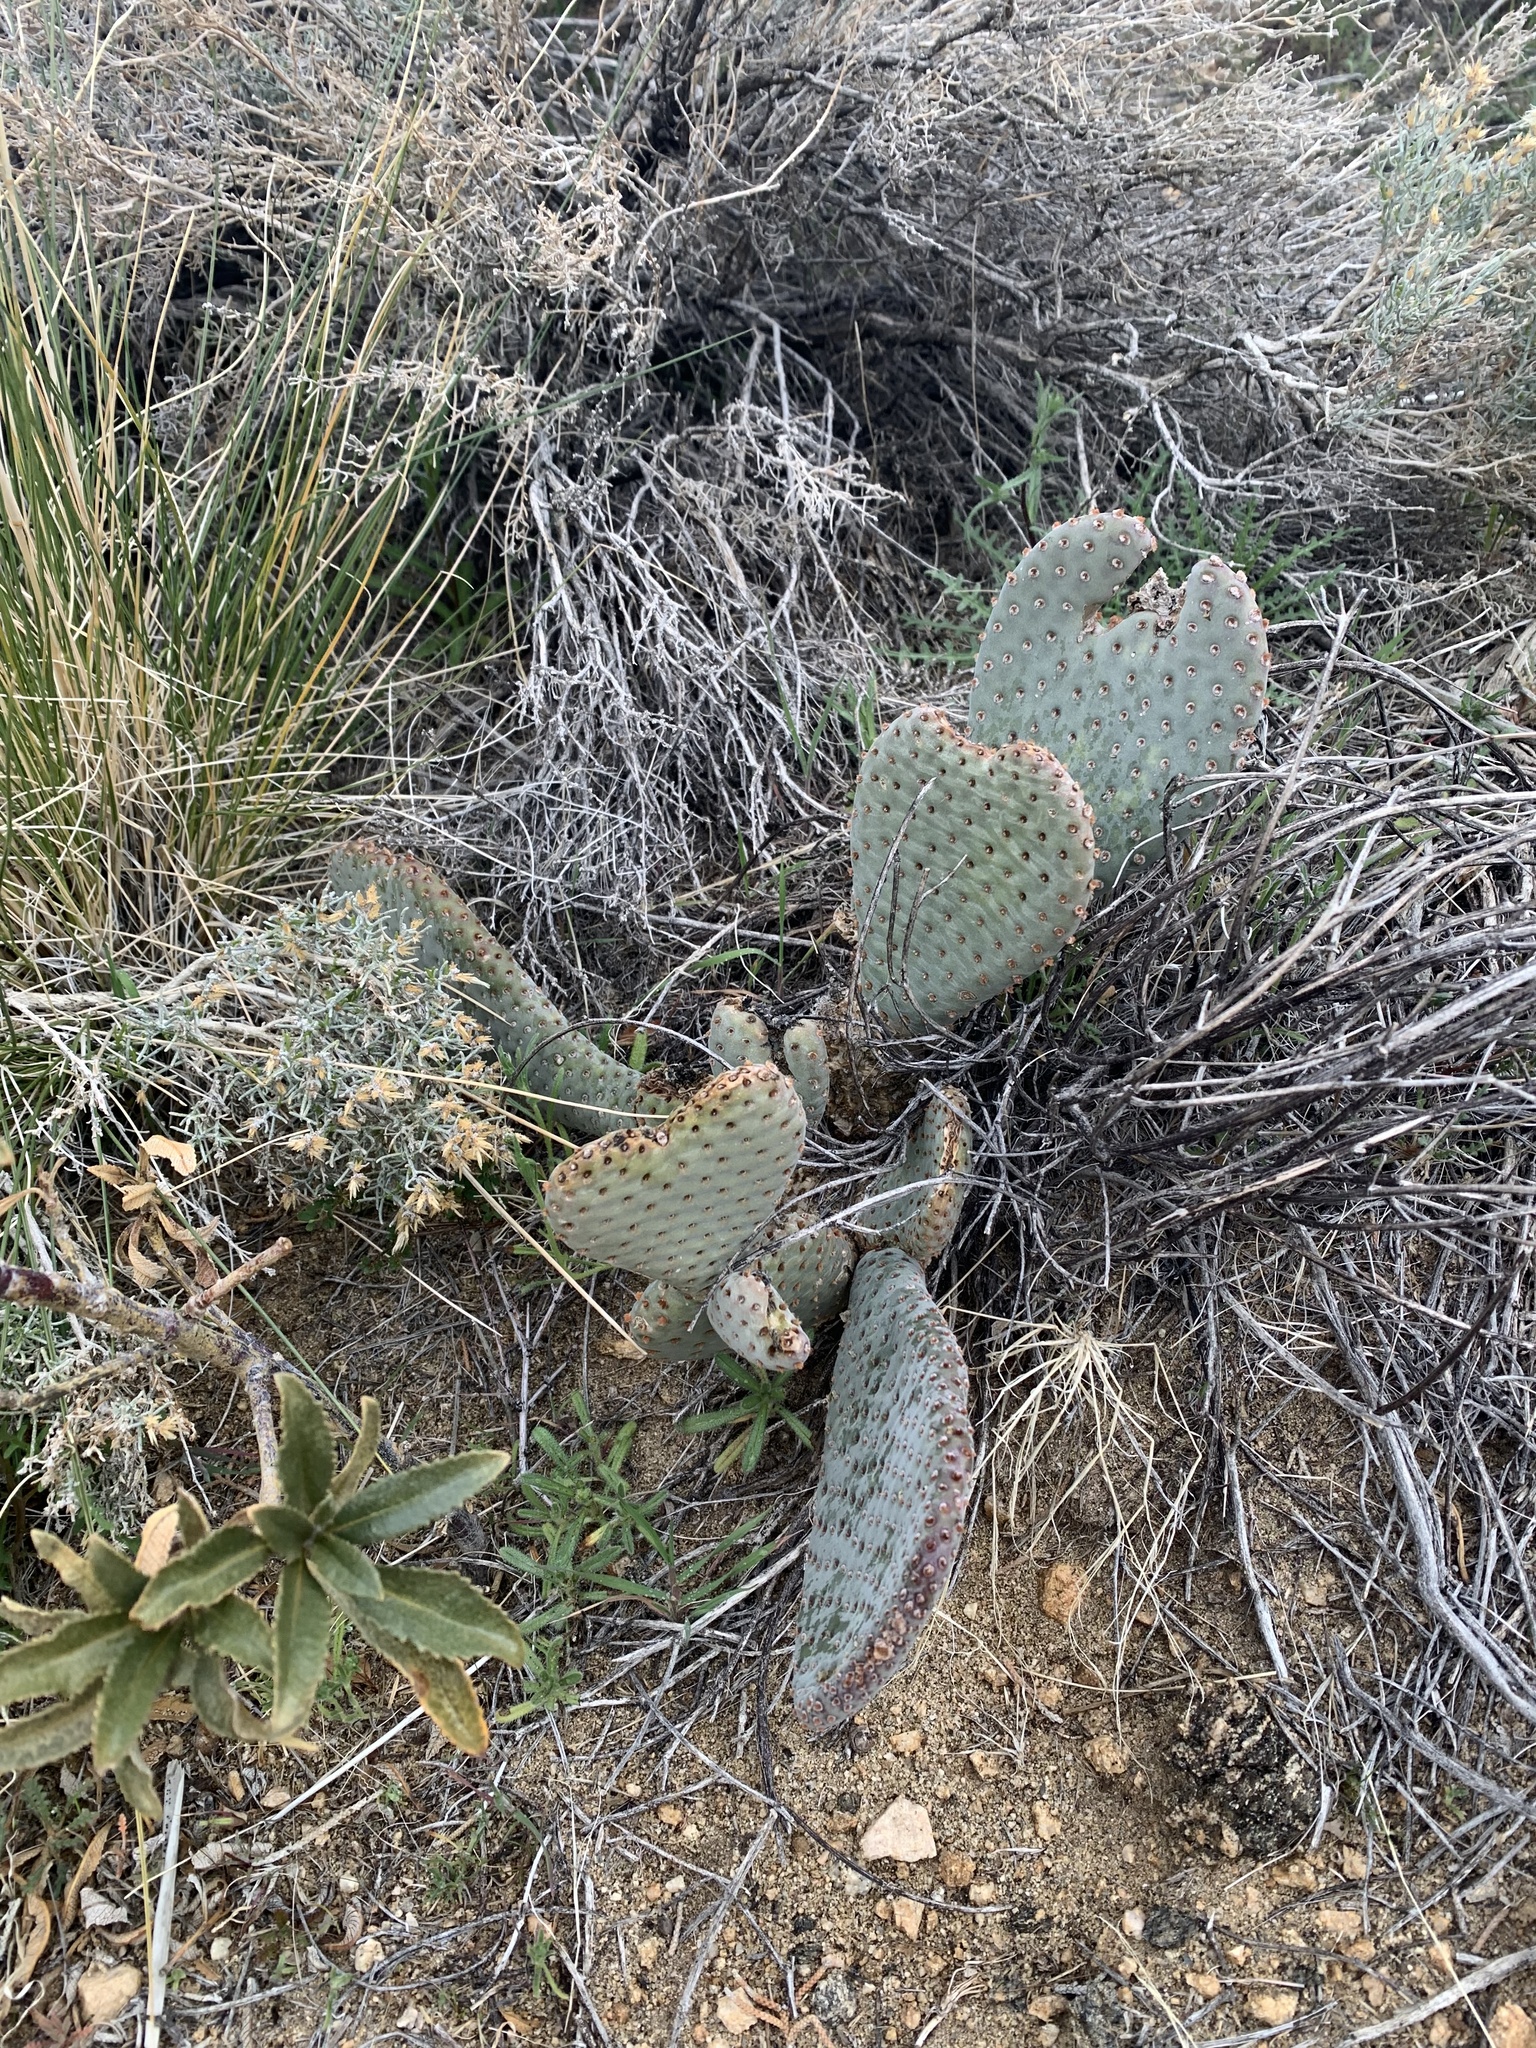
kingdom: Plantae
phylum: Tracheophyta
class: Magnoliopsida
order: Caryophyllales
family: Cactaceae
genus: Opuntia
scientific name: Opuntia basilaris
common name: Beavertail prickly-pear
